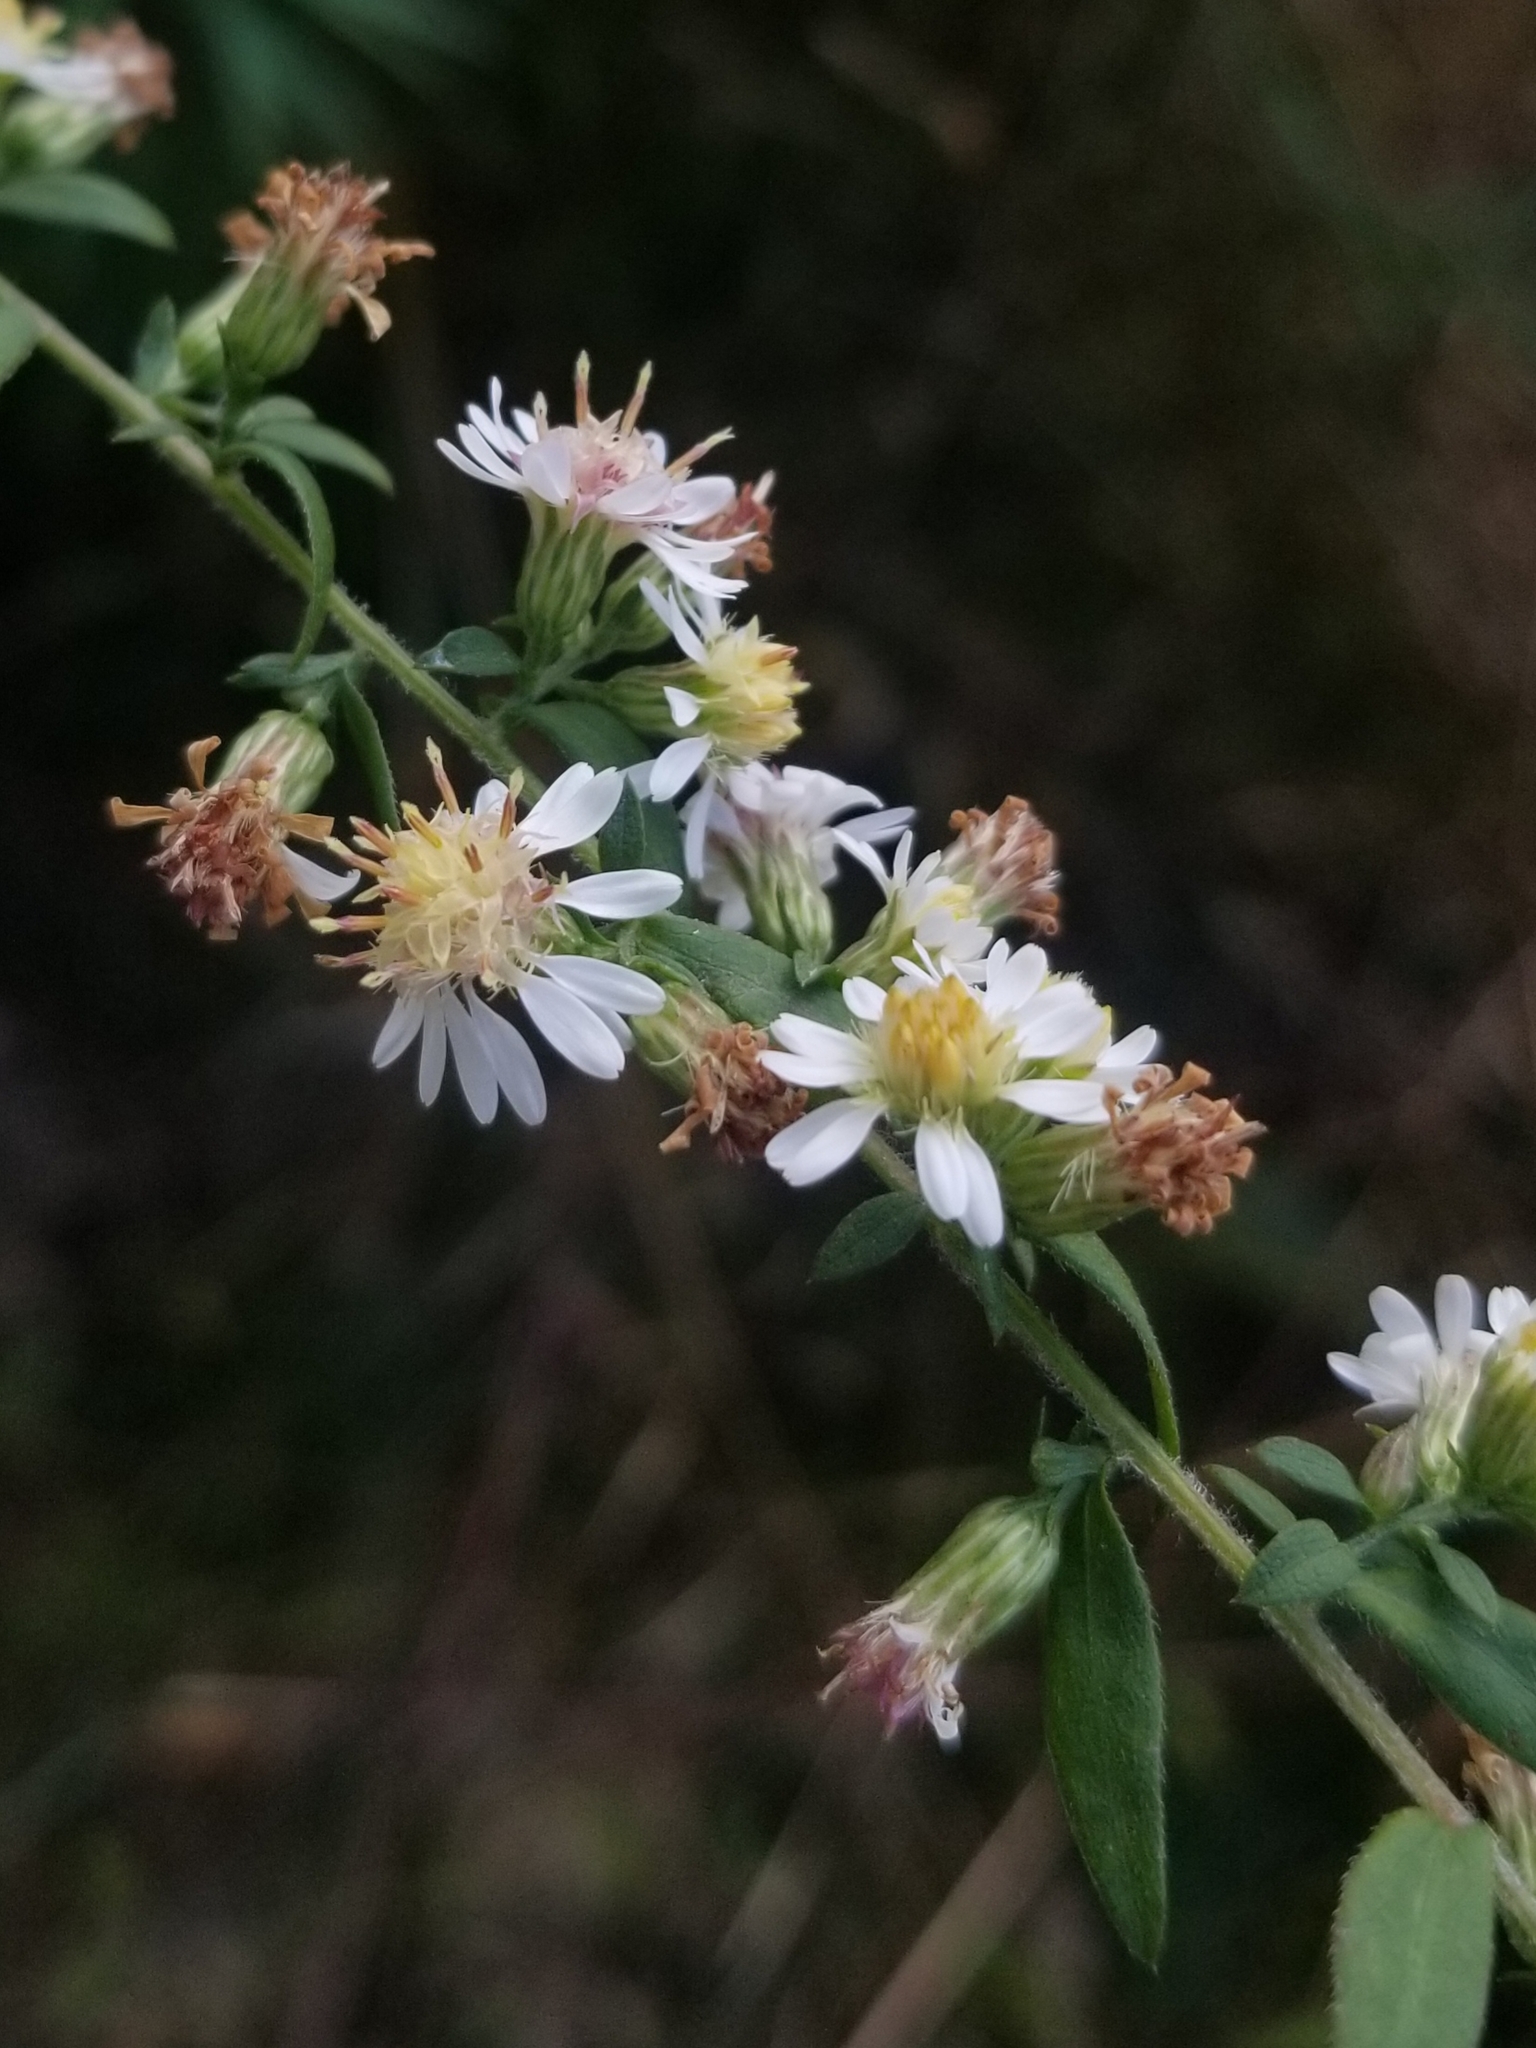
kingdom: Plantae
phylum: Tracheophyta
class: Magnoliopsida
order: Asterales
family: Asteraceae
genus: Symphyotrichum
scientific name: Symphyotrichum lateriflorum
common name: Calico aster
